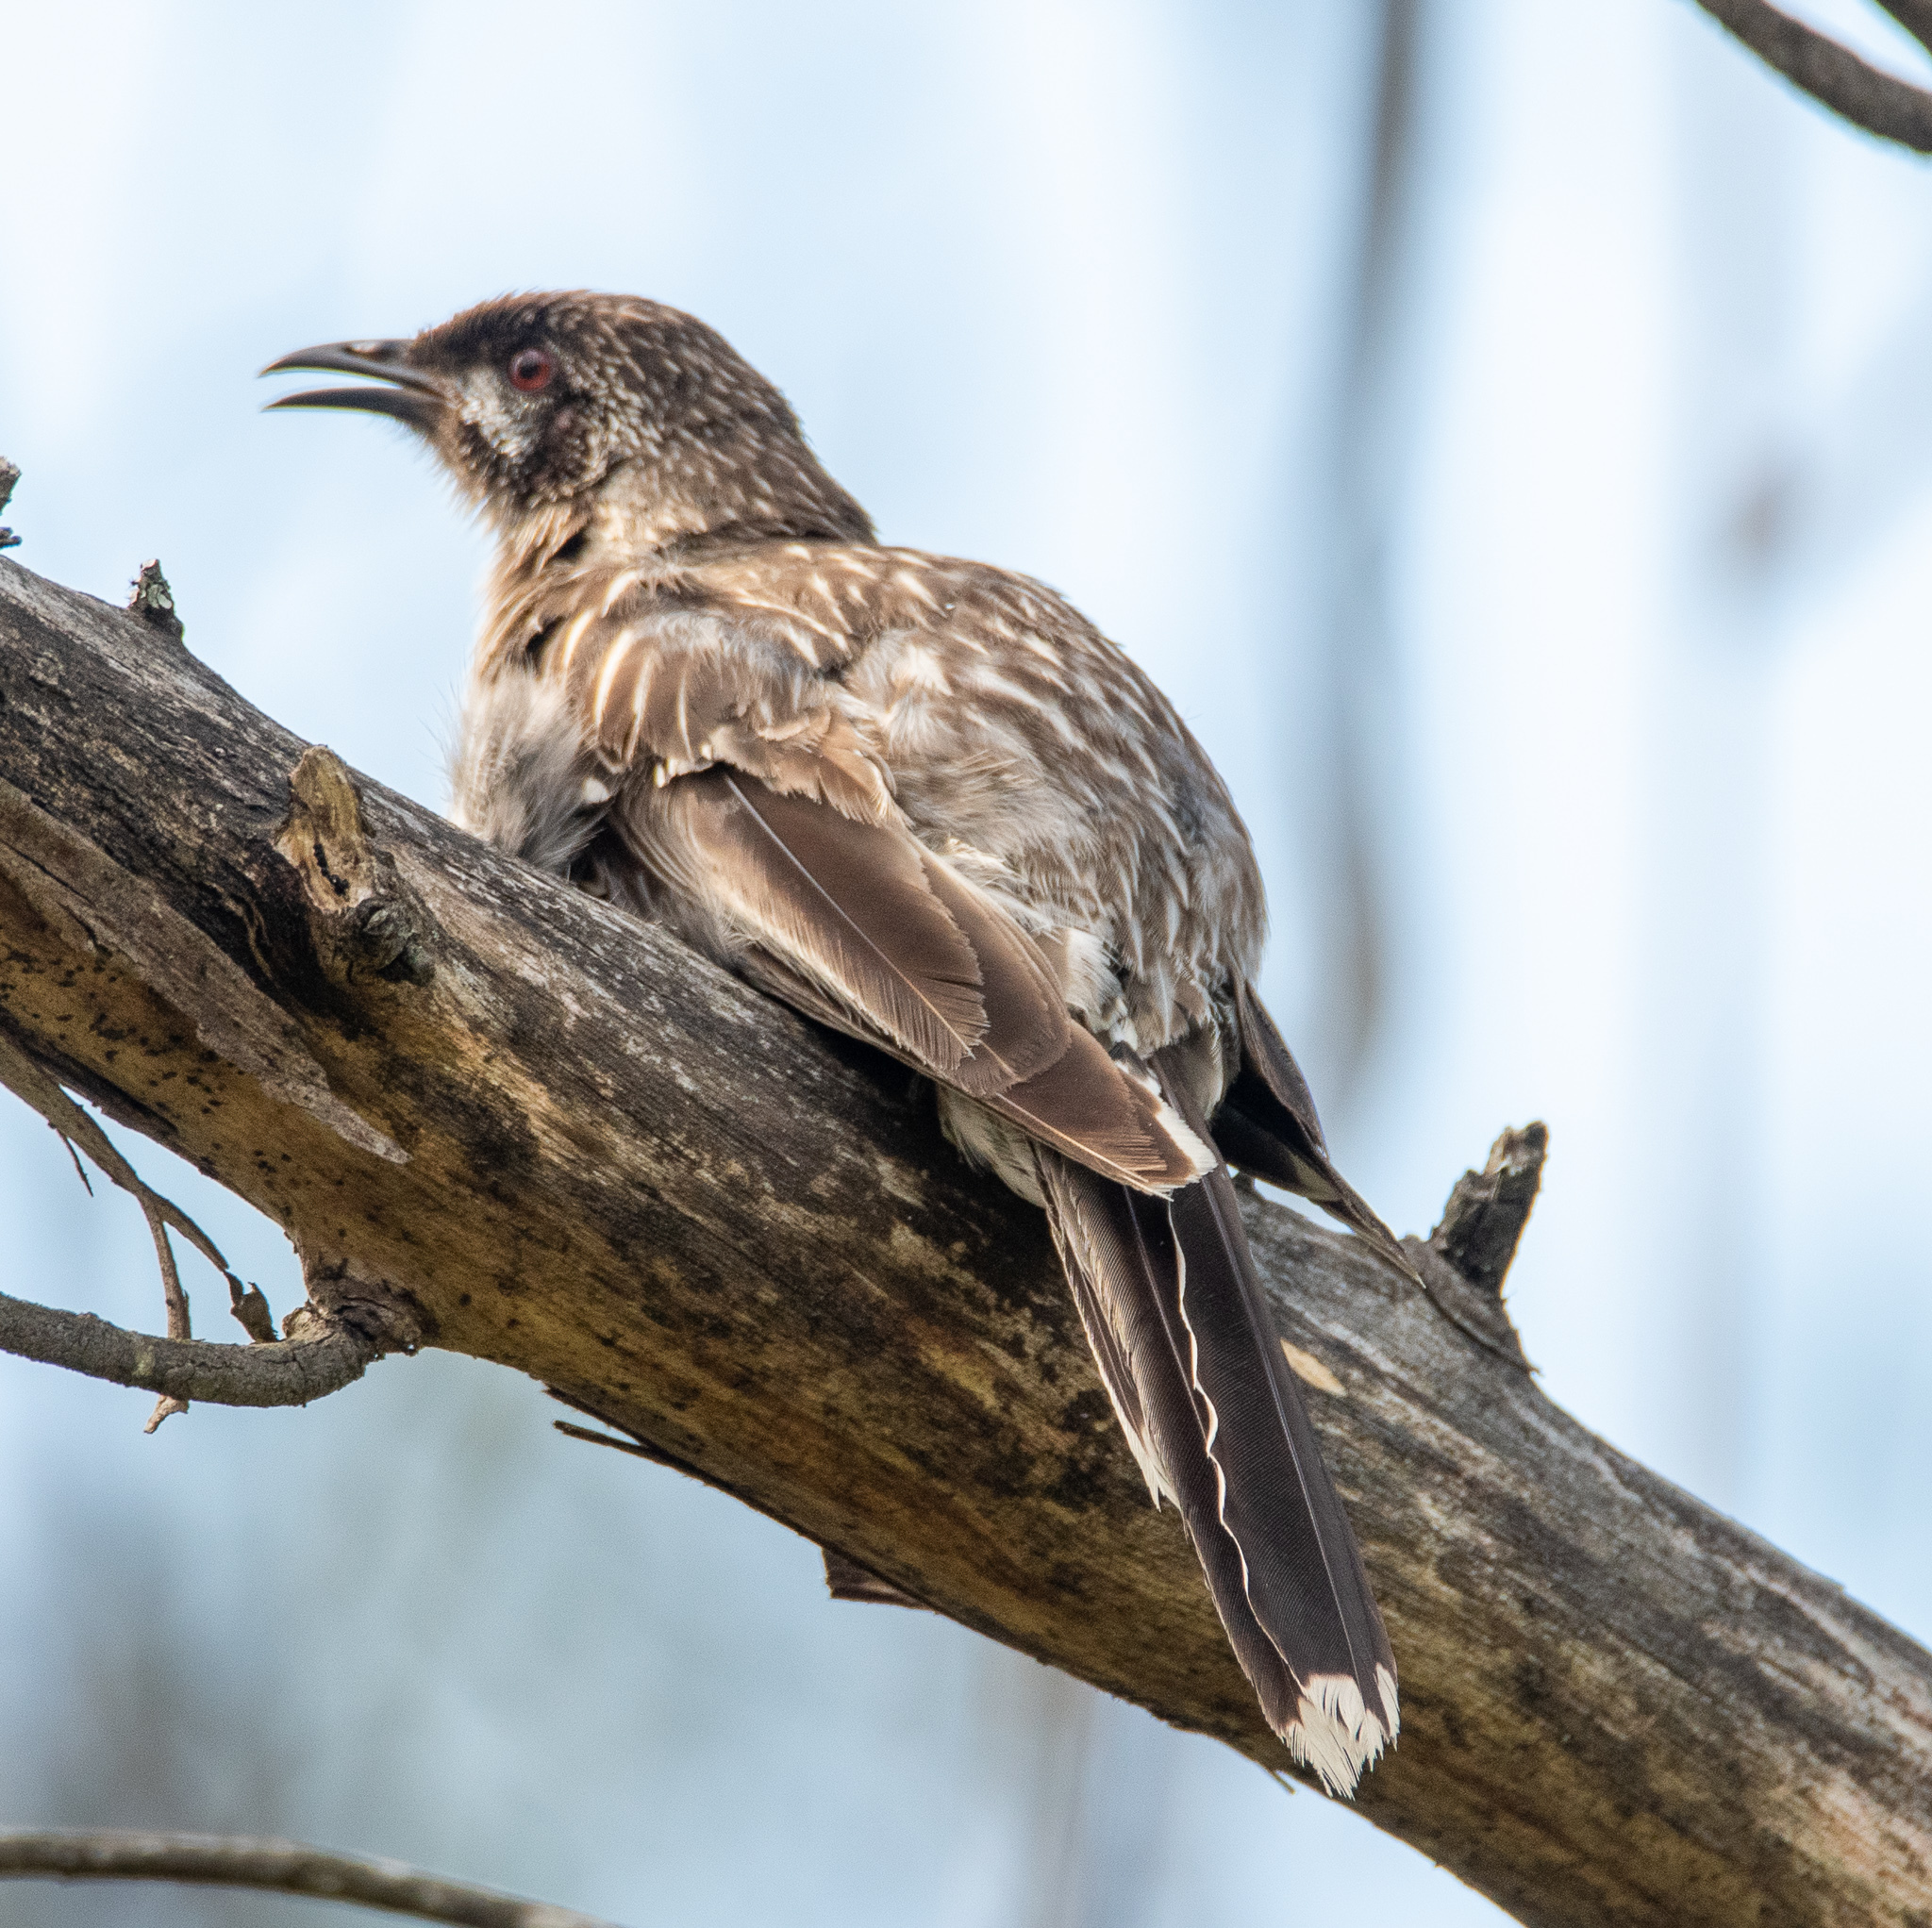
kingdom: Animalia
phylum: Chordata
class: Aves
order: Passeriformes
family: Meliphagidae
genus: Anthochaera
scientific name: Anthochaera carunculata
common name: Red wattlebird
